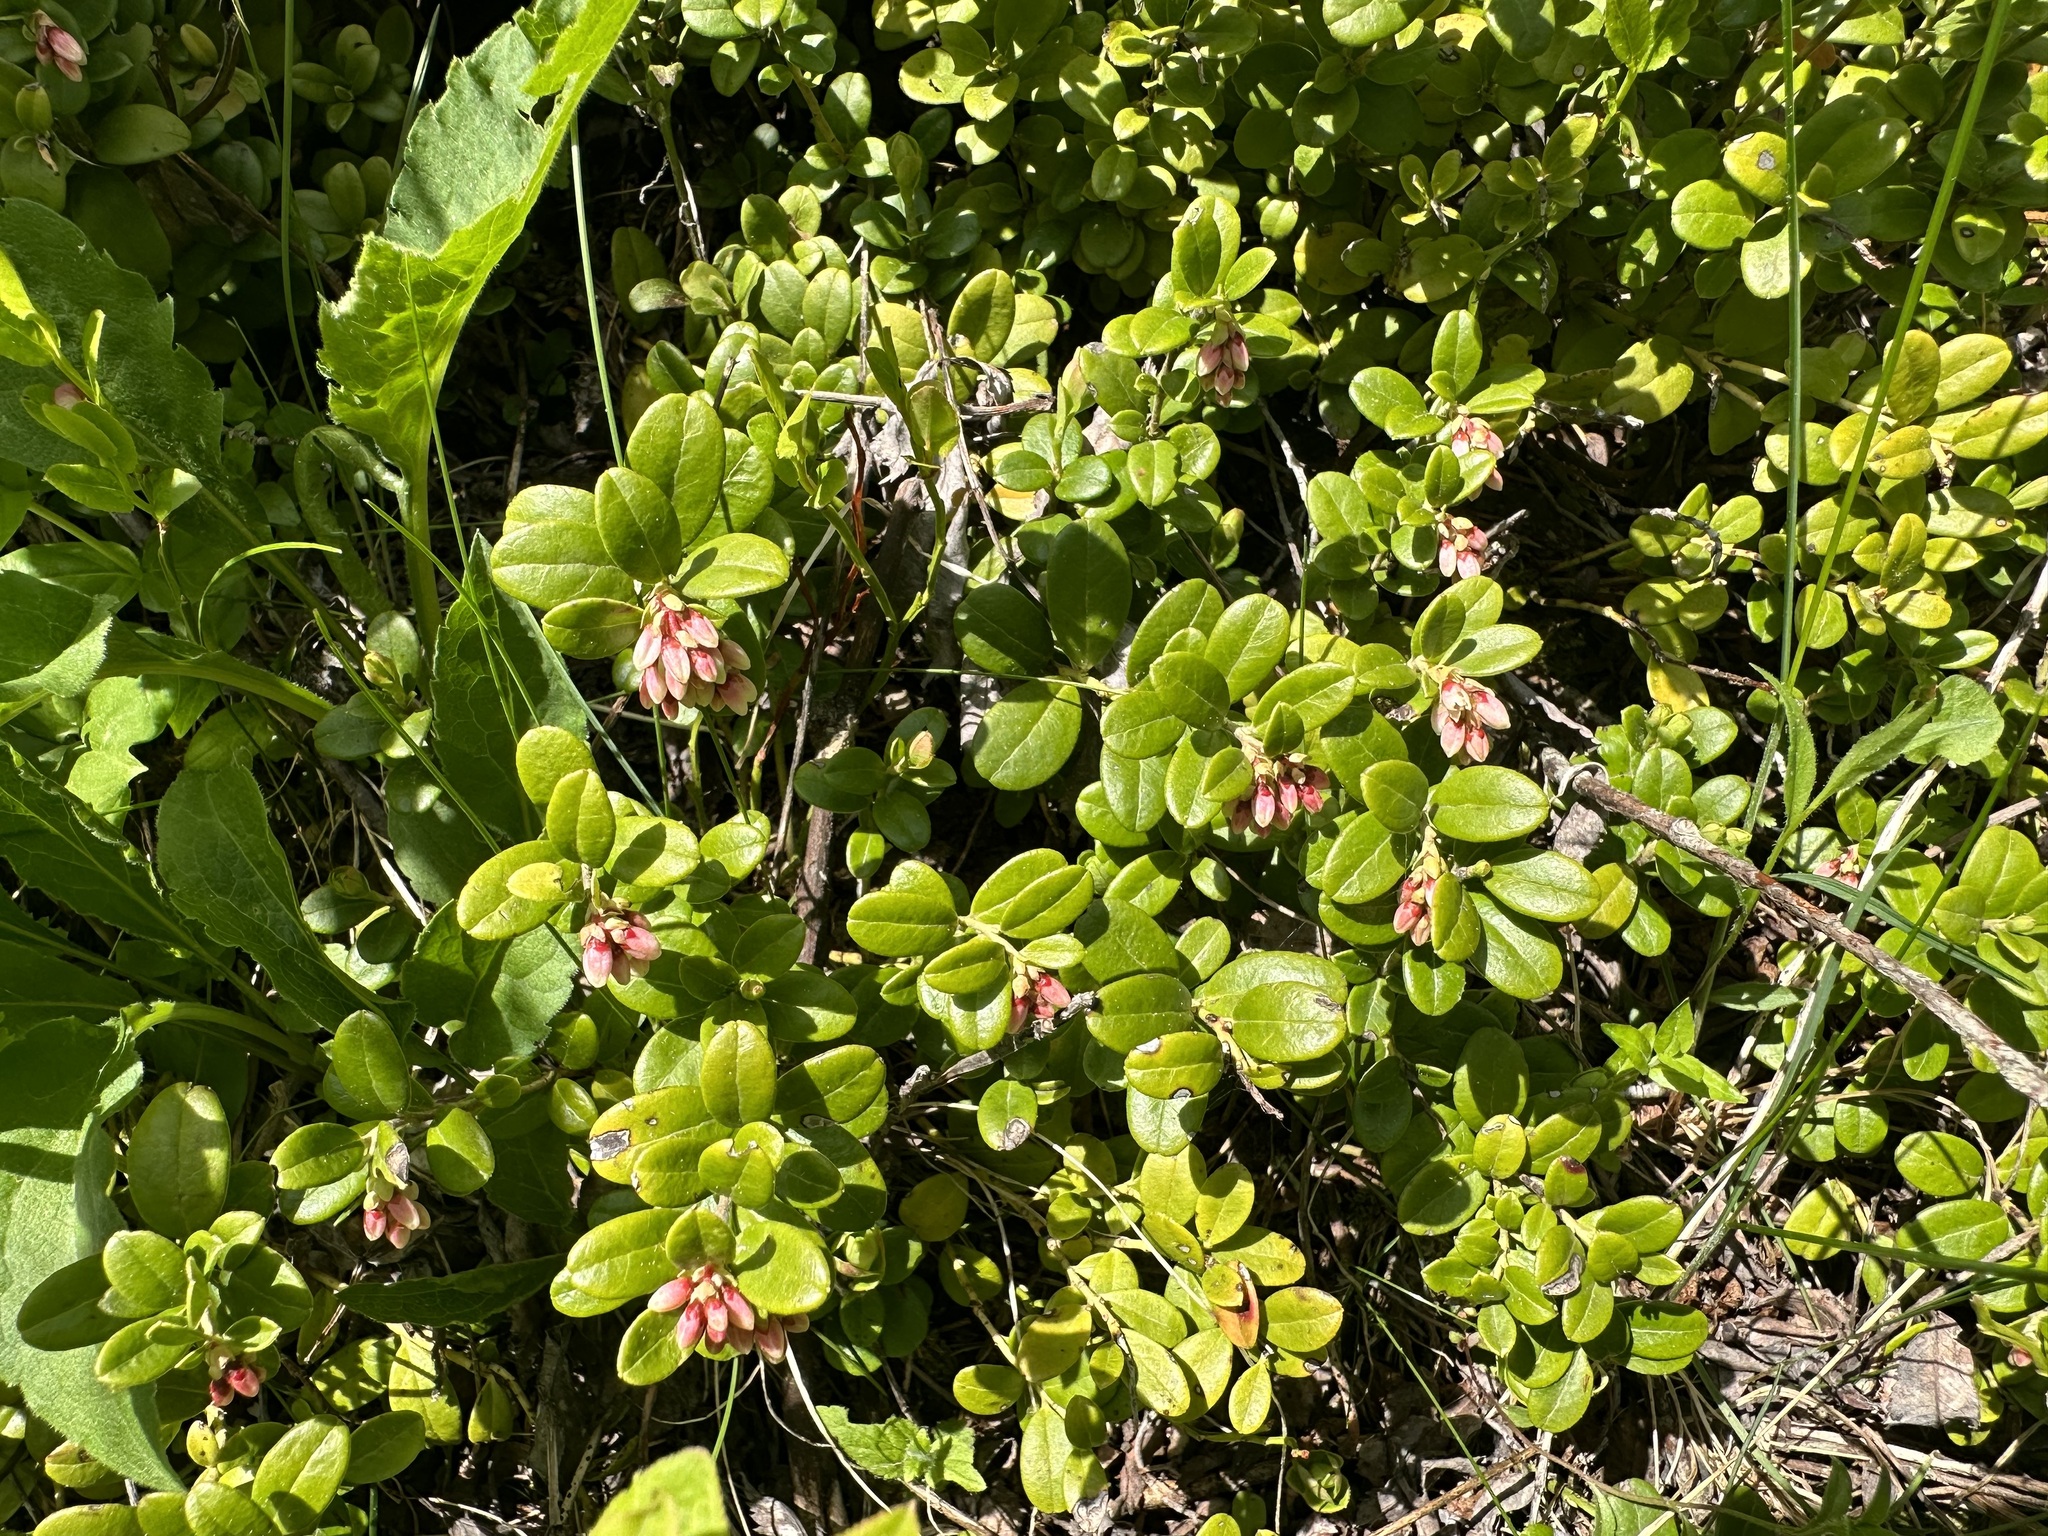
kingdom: Plantae
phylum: Tracheophyta
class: Magnoliopsida
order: Ericales
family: Ericaceae
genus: Vaccinium
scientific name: Vaccinium vitis-idaea
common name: Cowberry
